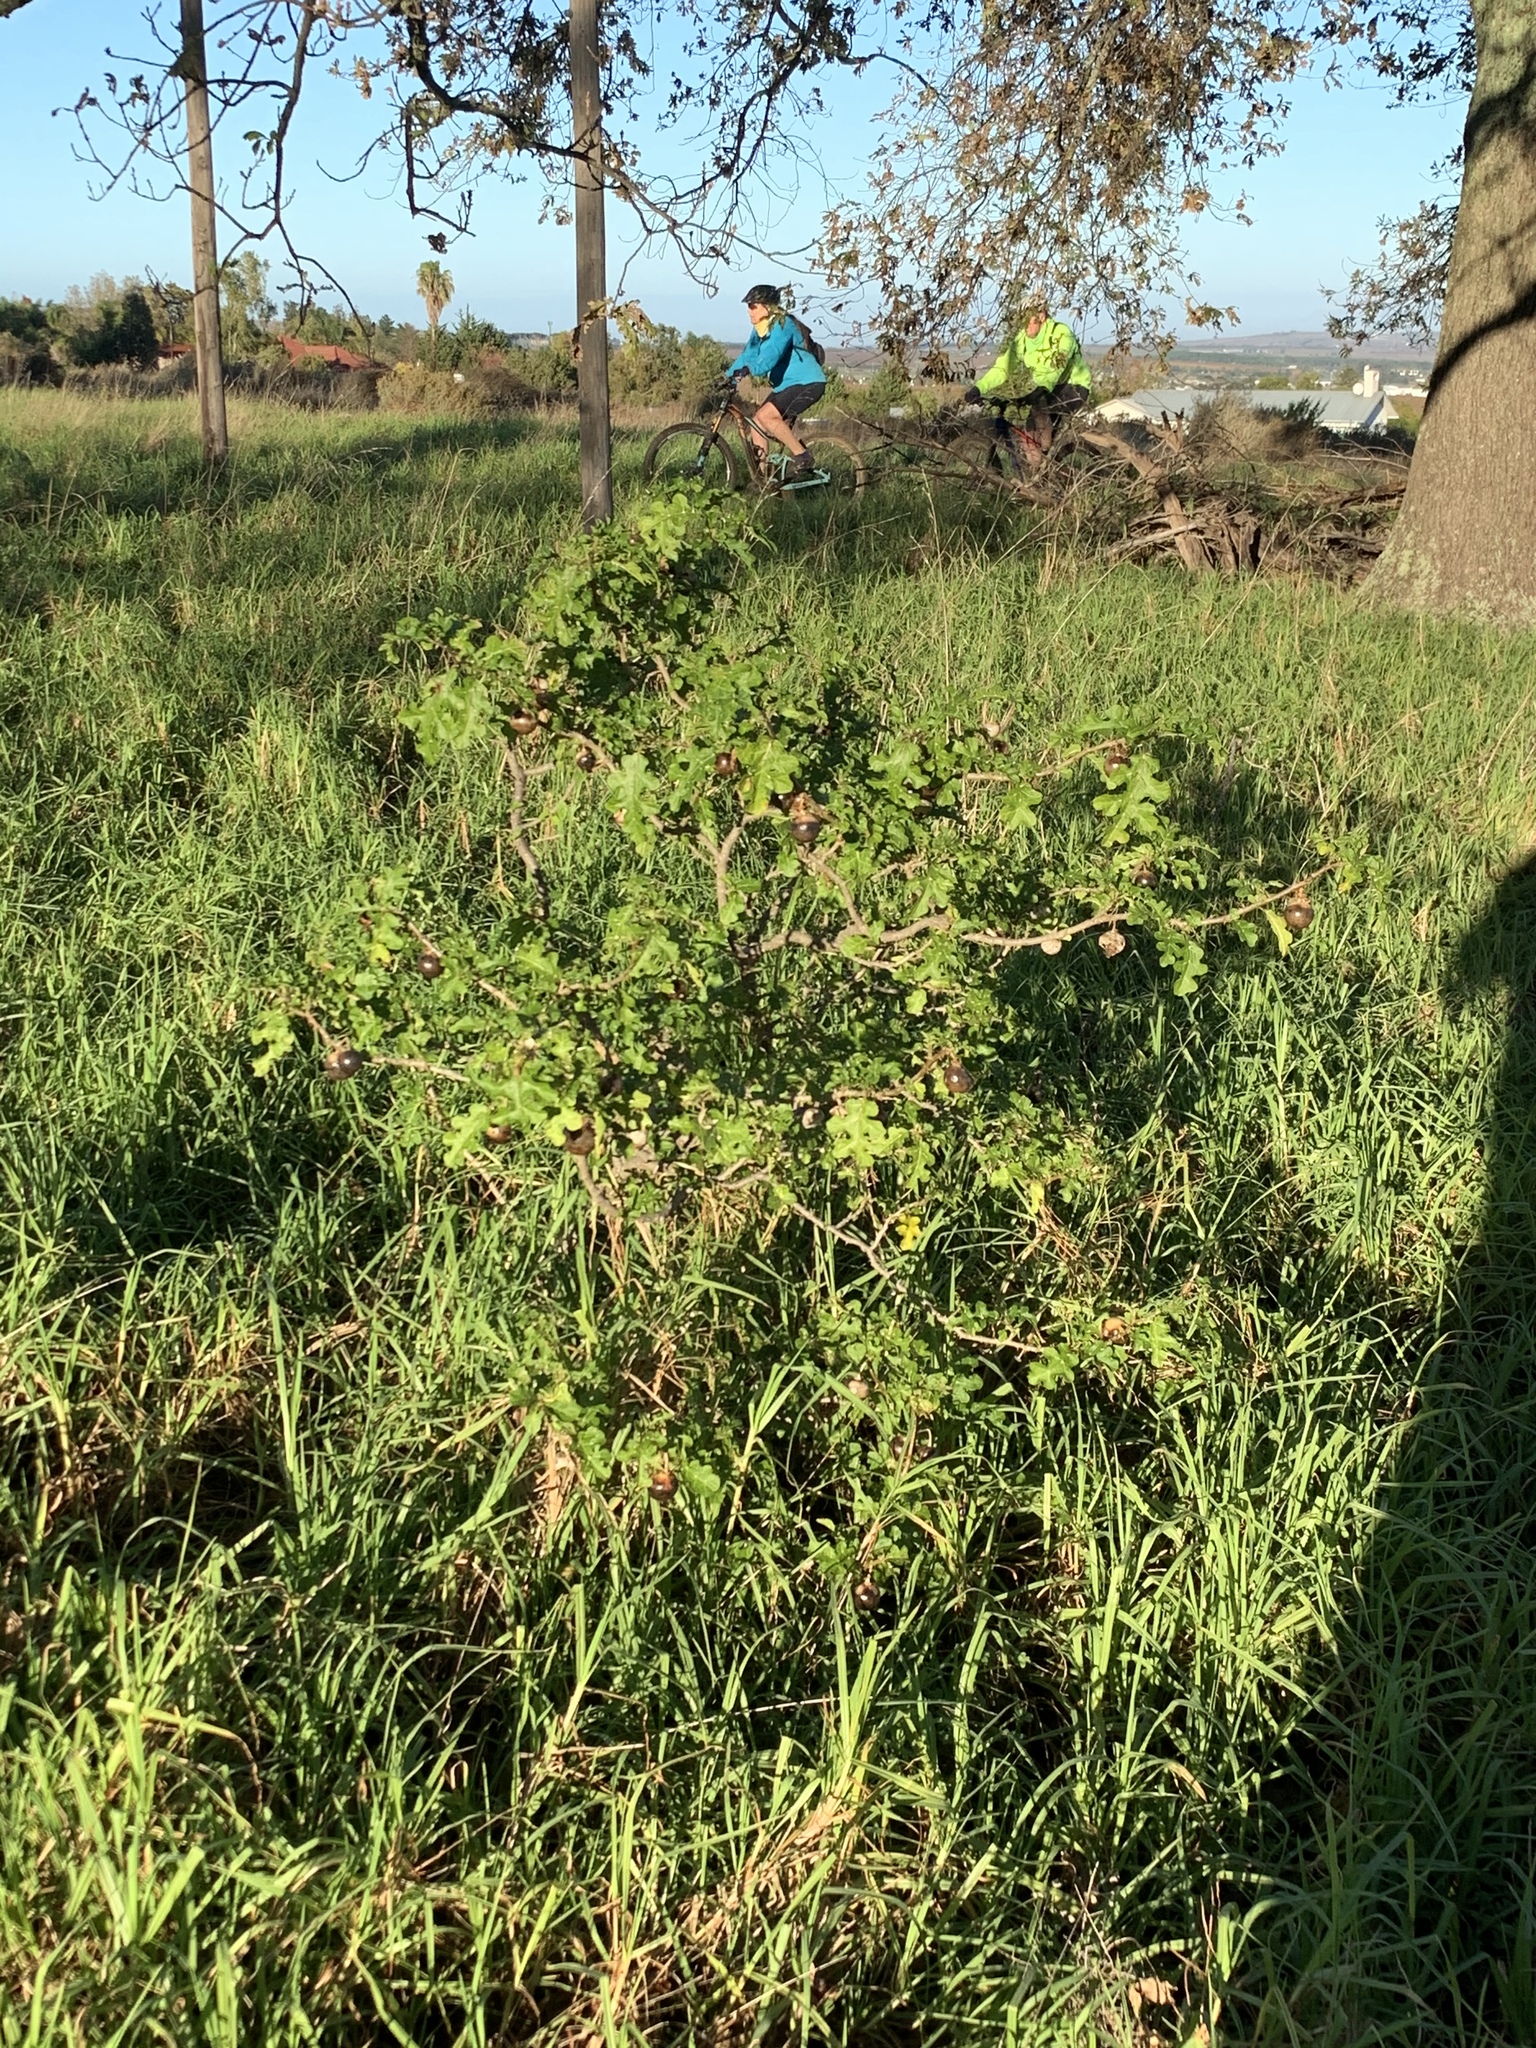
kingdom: Plantae
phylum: Tracheophyta
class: Magnoliopsida
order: Solanales
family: Solanaceae
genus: Solanum
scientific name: Solanum linnaeanum
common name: Nightshade
